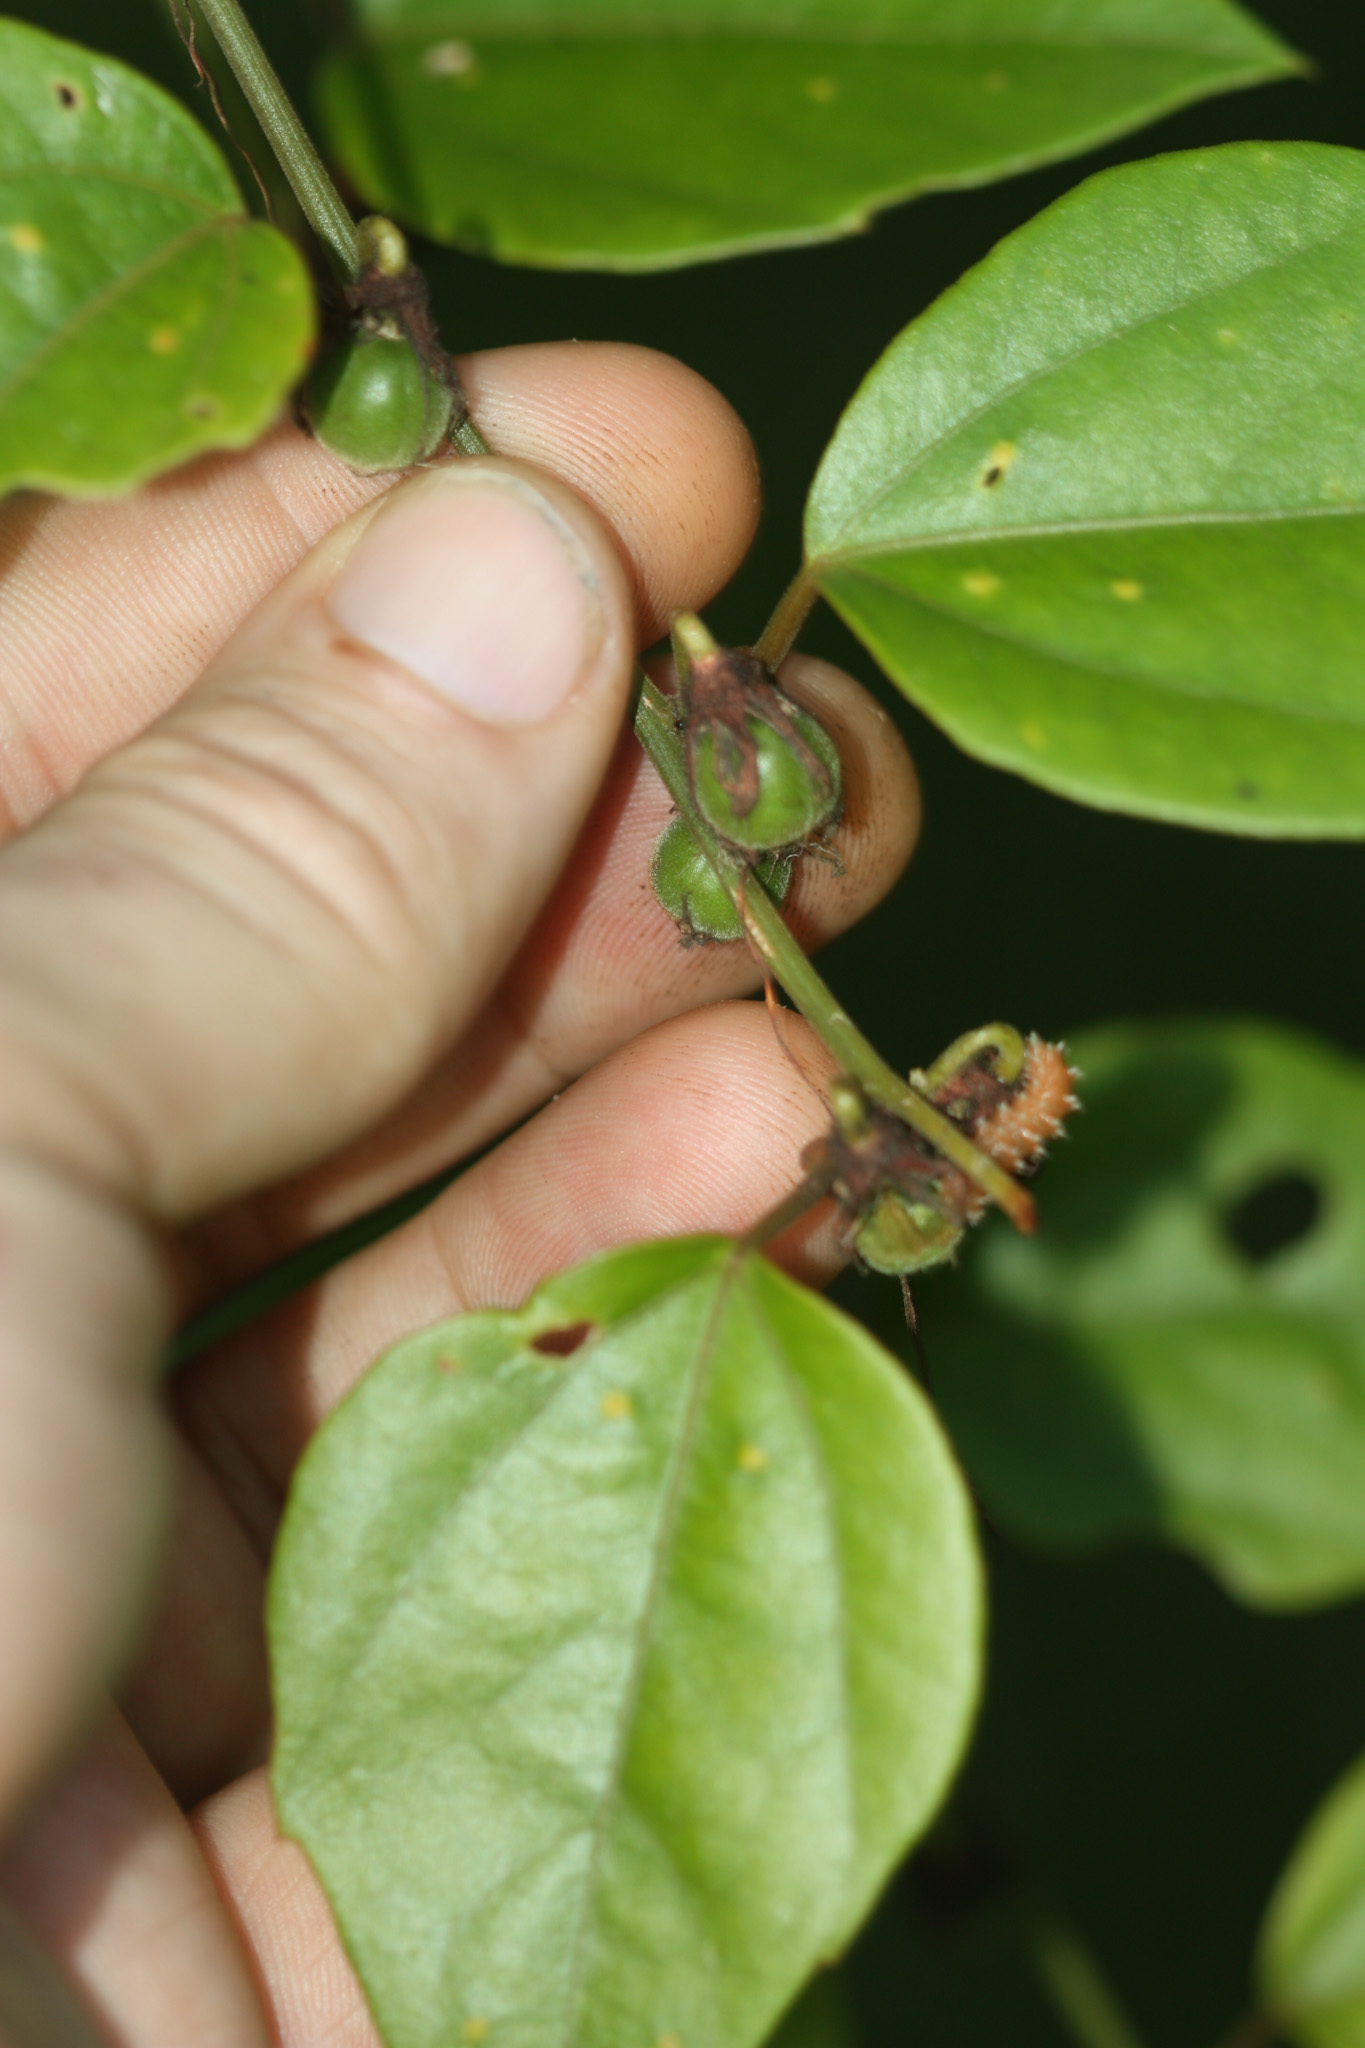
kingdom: Plantae
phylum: Tracheophyta
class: Magnoliopsida
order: Malpighiales
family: Passifloraceae
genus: Passiflora
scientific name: Passiflora auriculata
